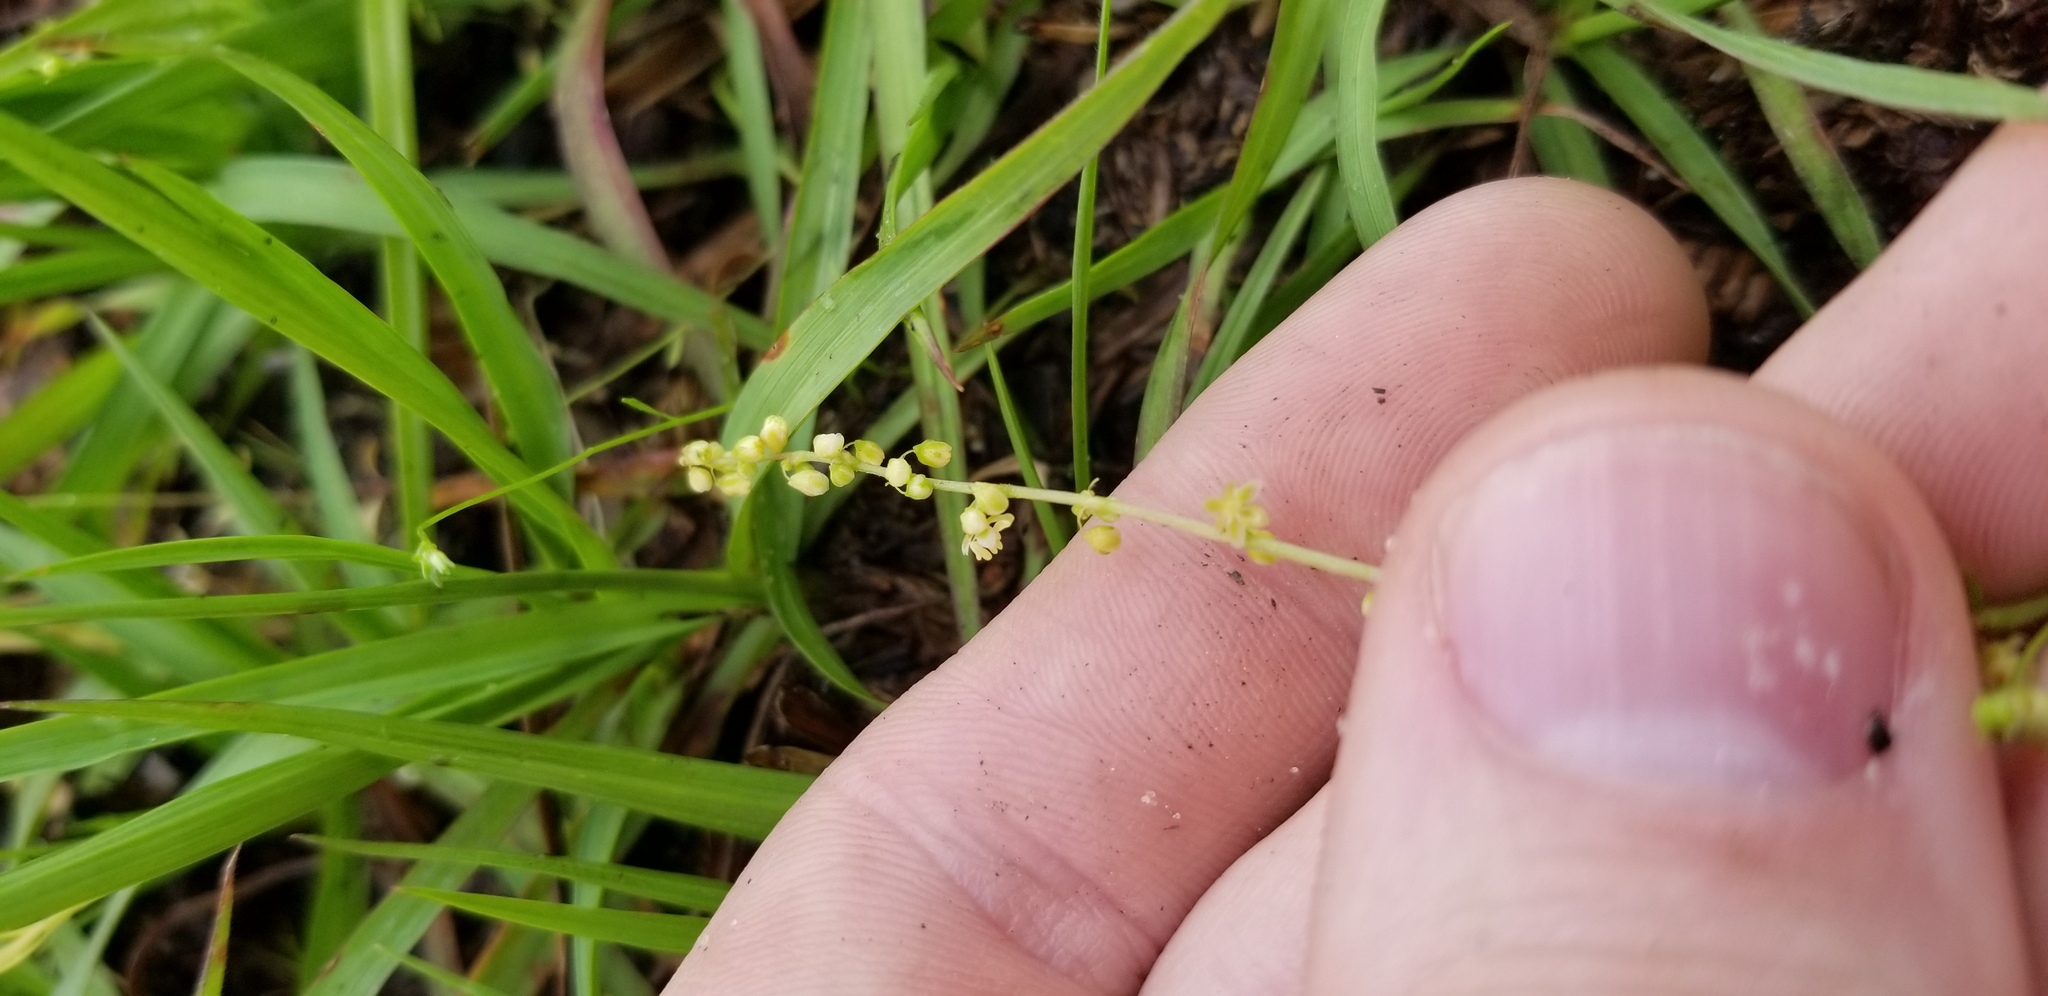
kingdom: Plantae
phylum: Tracheophyta
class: Magnoliopsida
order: Caryophyllales
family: Polygonaceae
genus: Rumex
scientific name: Rumex hastatulus
